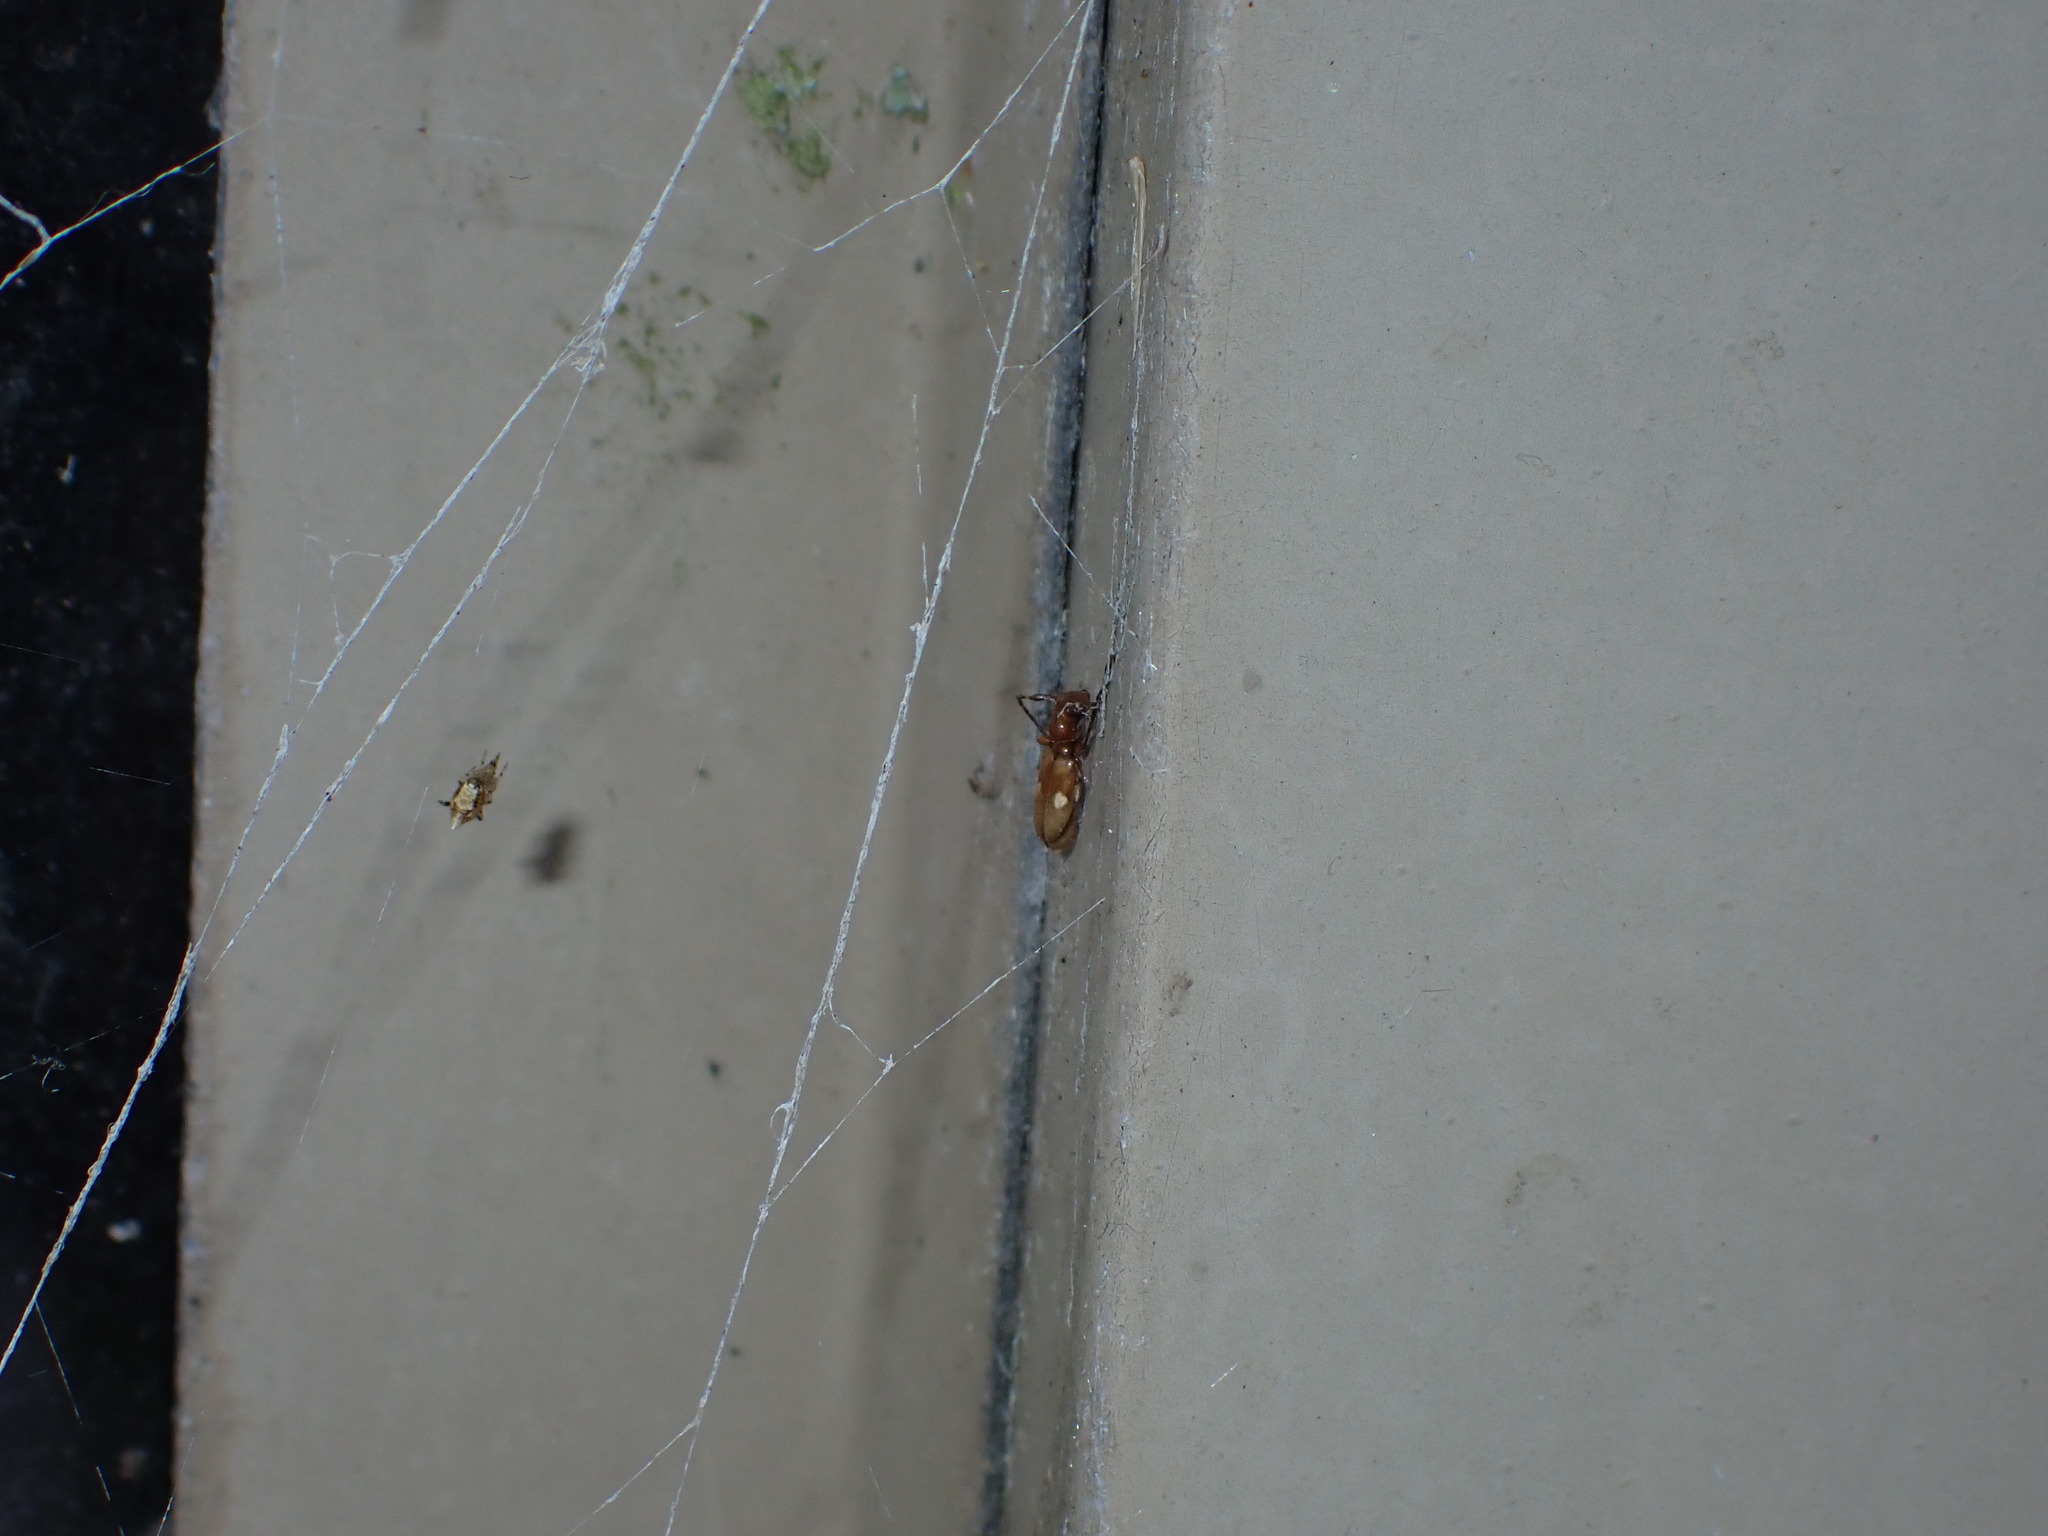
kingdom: Animalia
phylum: Arthropoda
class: Insecta
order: Coleoptera
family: Cerambycidae
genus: Zorion
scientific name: Zorion batesi
